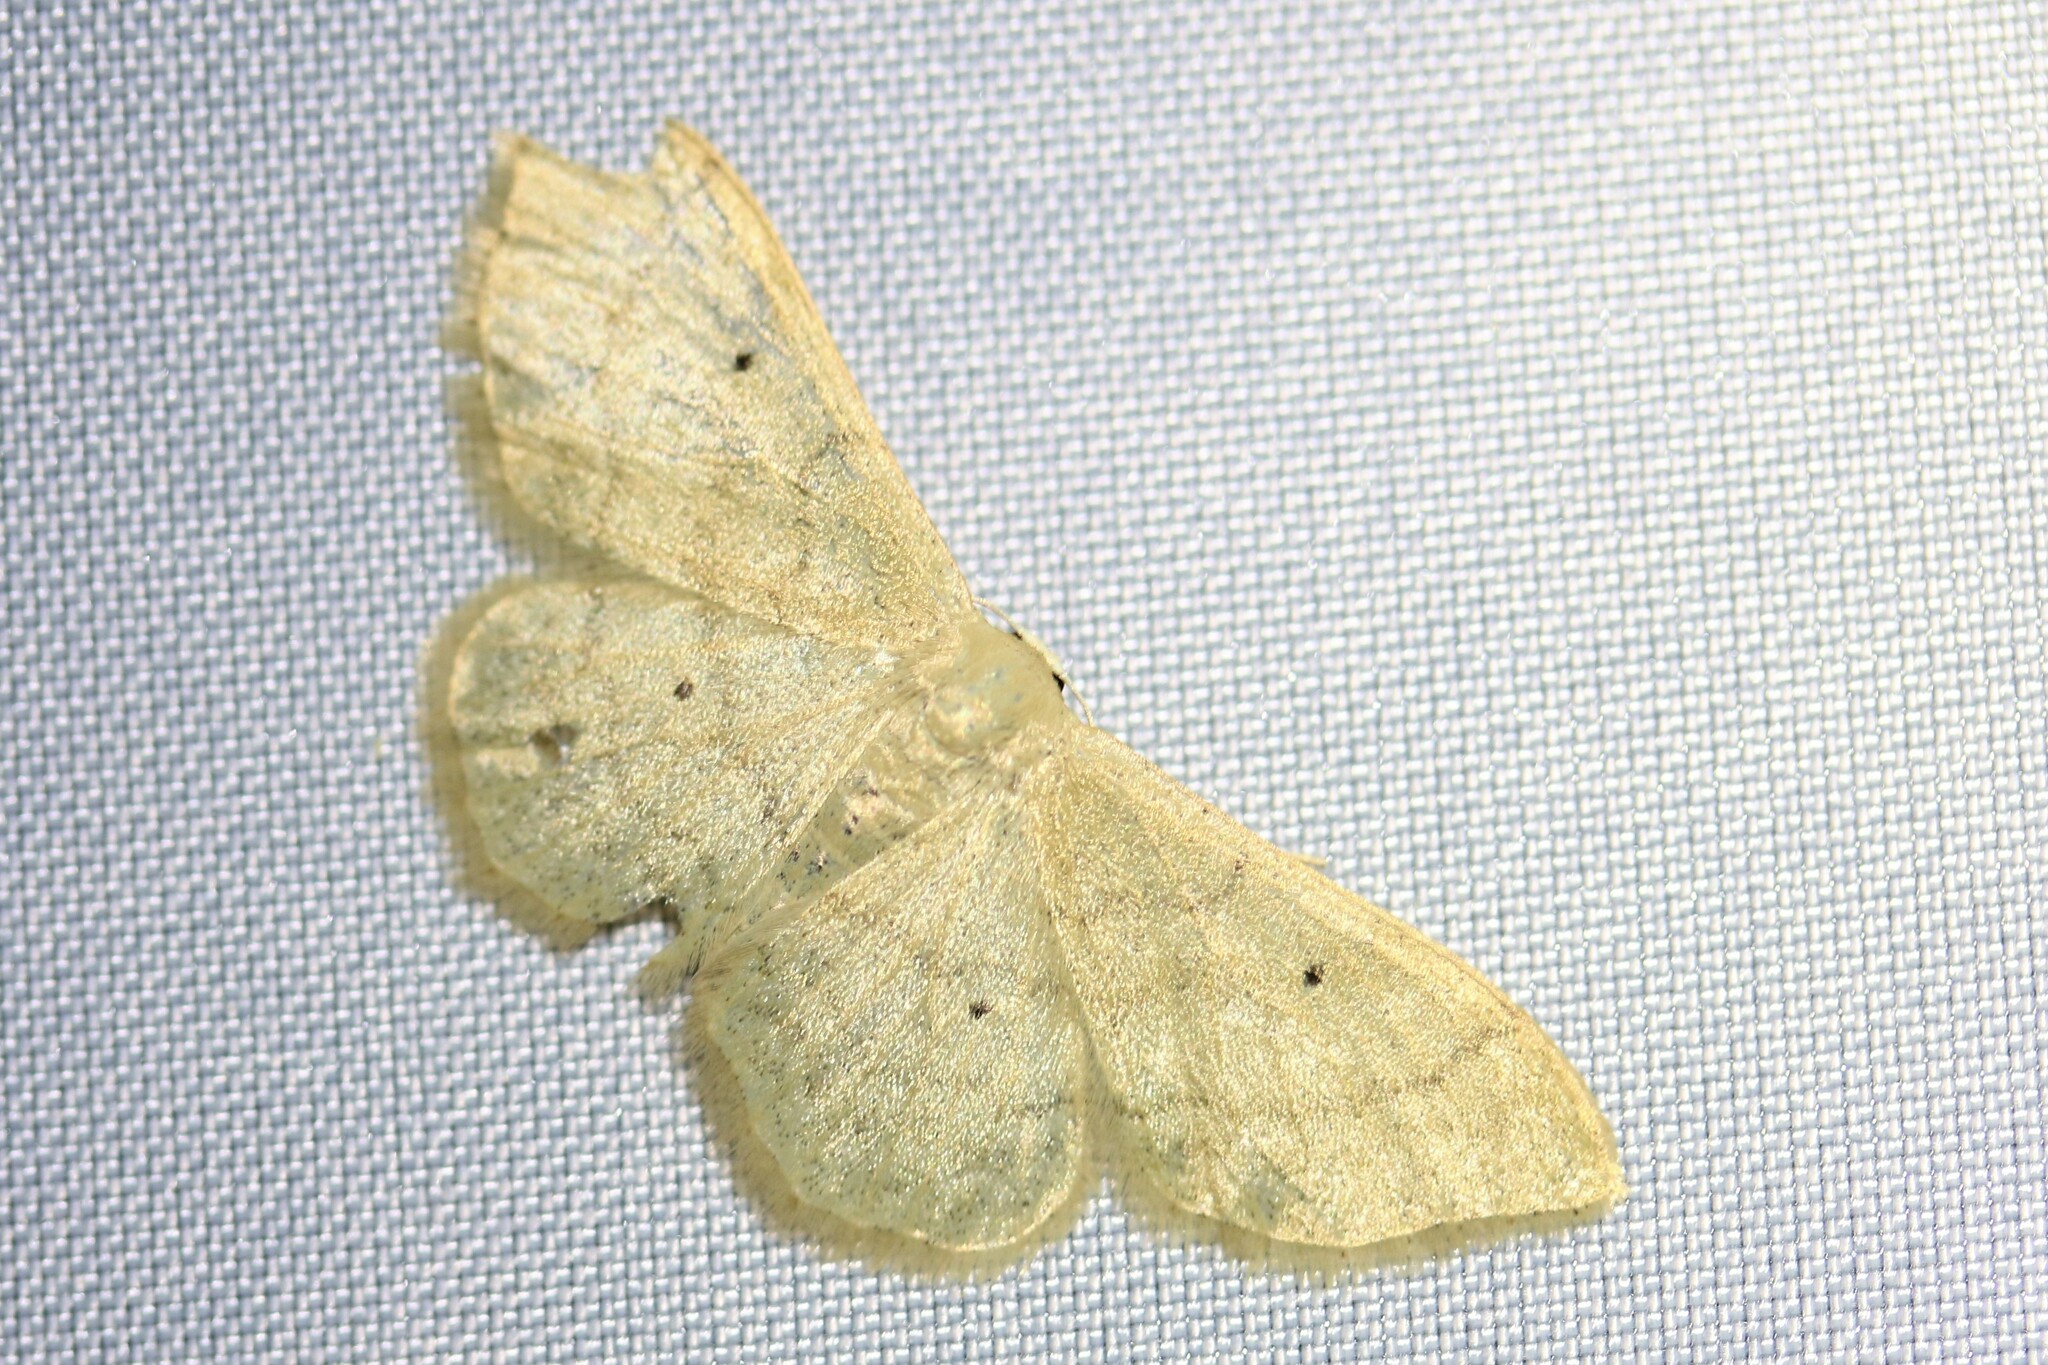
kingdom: Animalia
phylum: Arthropoda
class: Insecta
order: Lepidoptera
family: Geometridae
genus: Idaea
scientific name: Idaea straminata
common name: Plain wave
